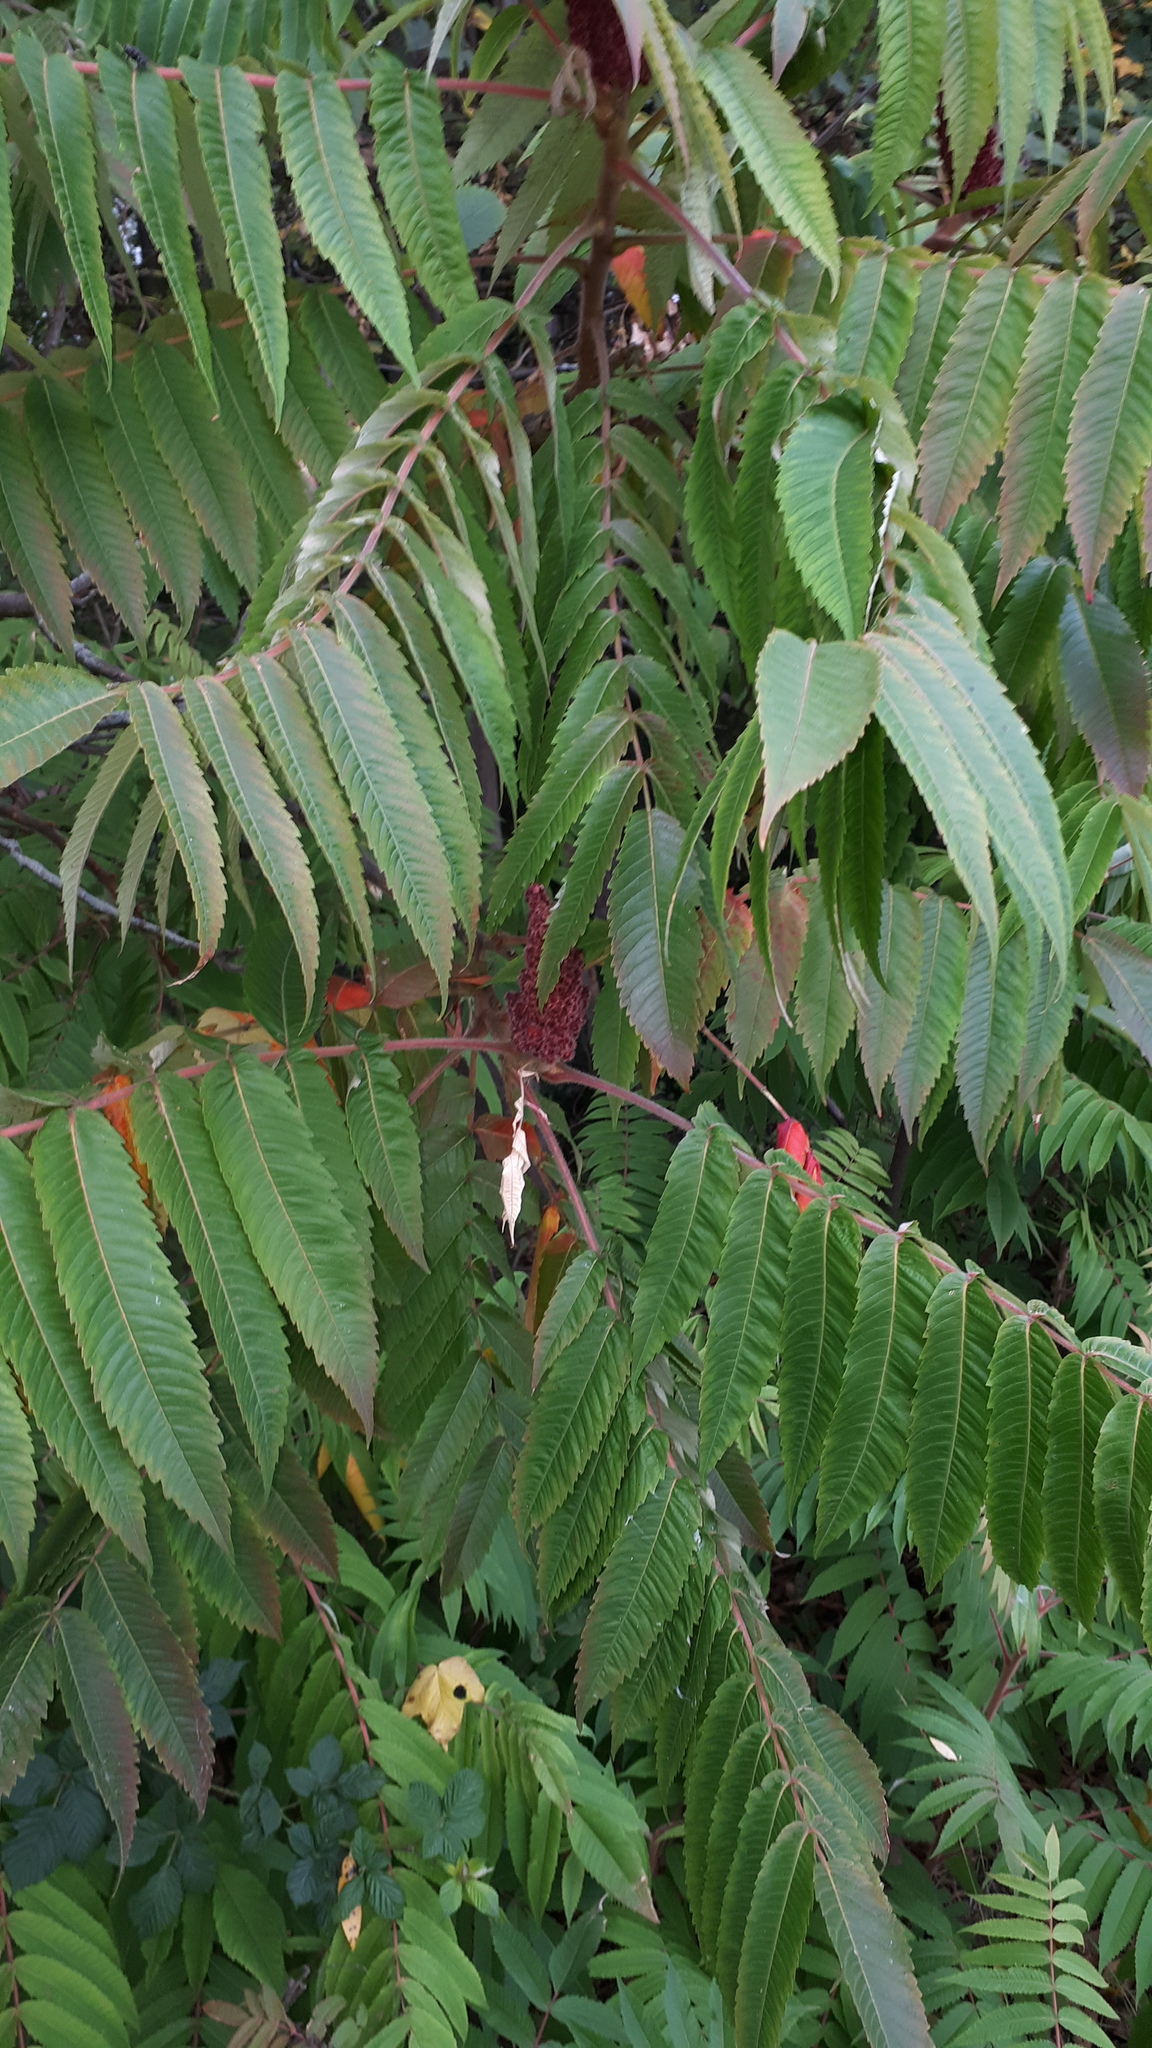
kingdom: Plantae
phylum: Tracheophyta
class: Magnoliopsida
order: Sapindales
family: Anacardiaceae
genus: Rhus
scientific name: Rhus typhina
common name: Staghorn sumac
